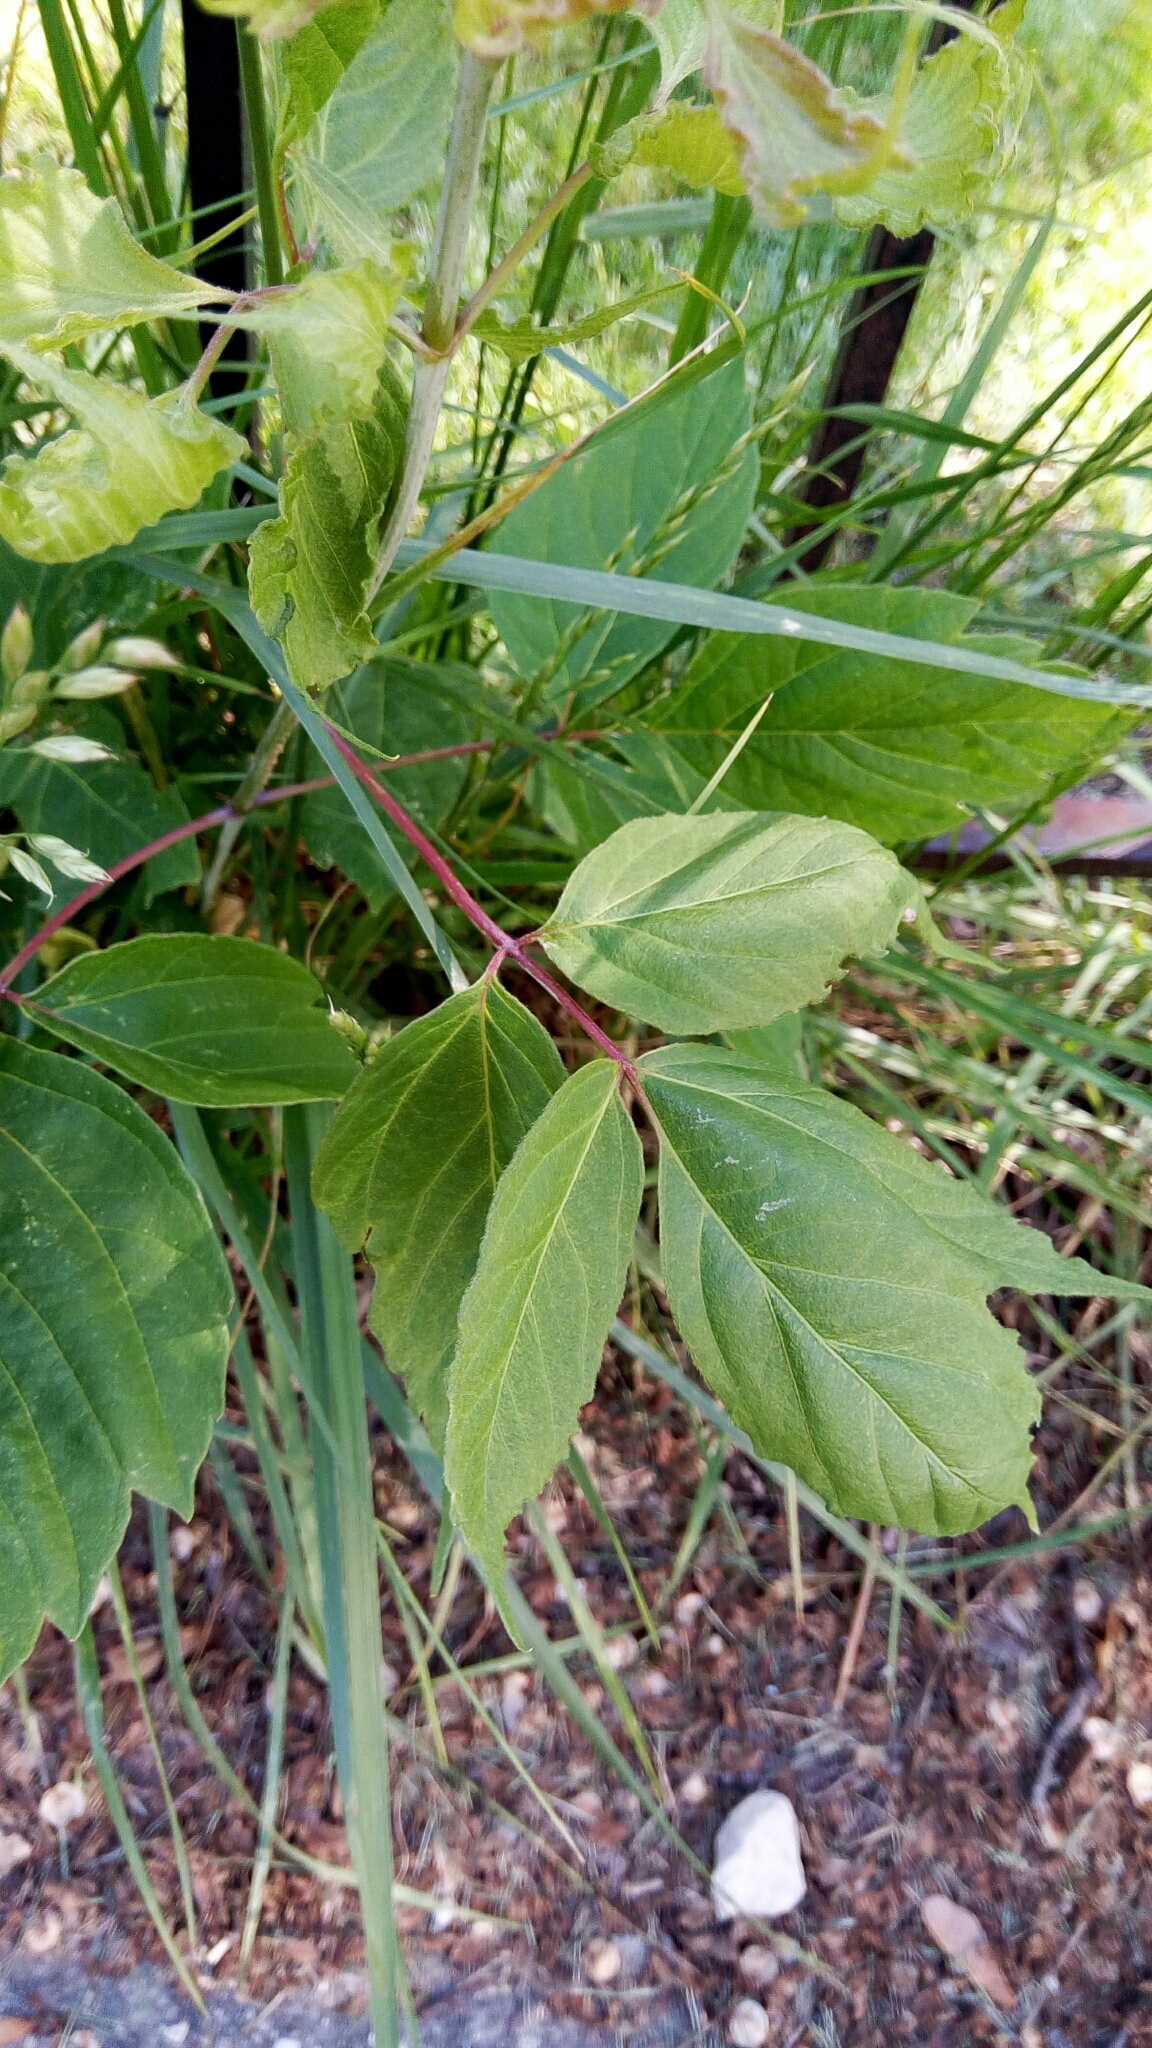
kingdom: Plantae
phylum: Tracheophyta
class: Magnoliopsida
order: Sapindales
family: Sapindaceae
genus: Acer
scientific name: Acer negundo
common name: Ashleaf maple
